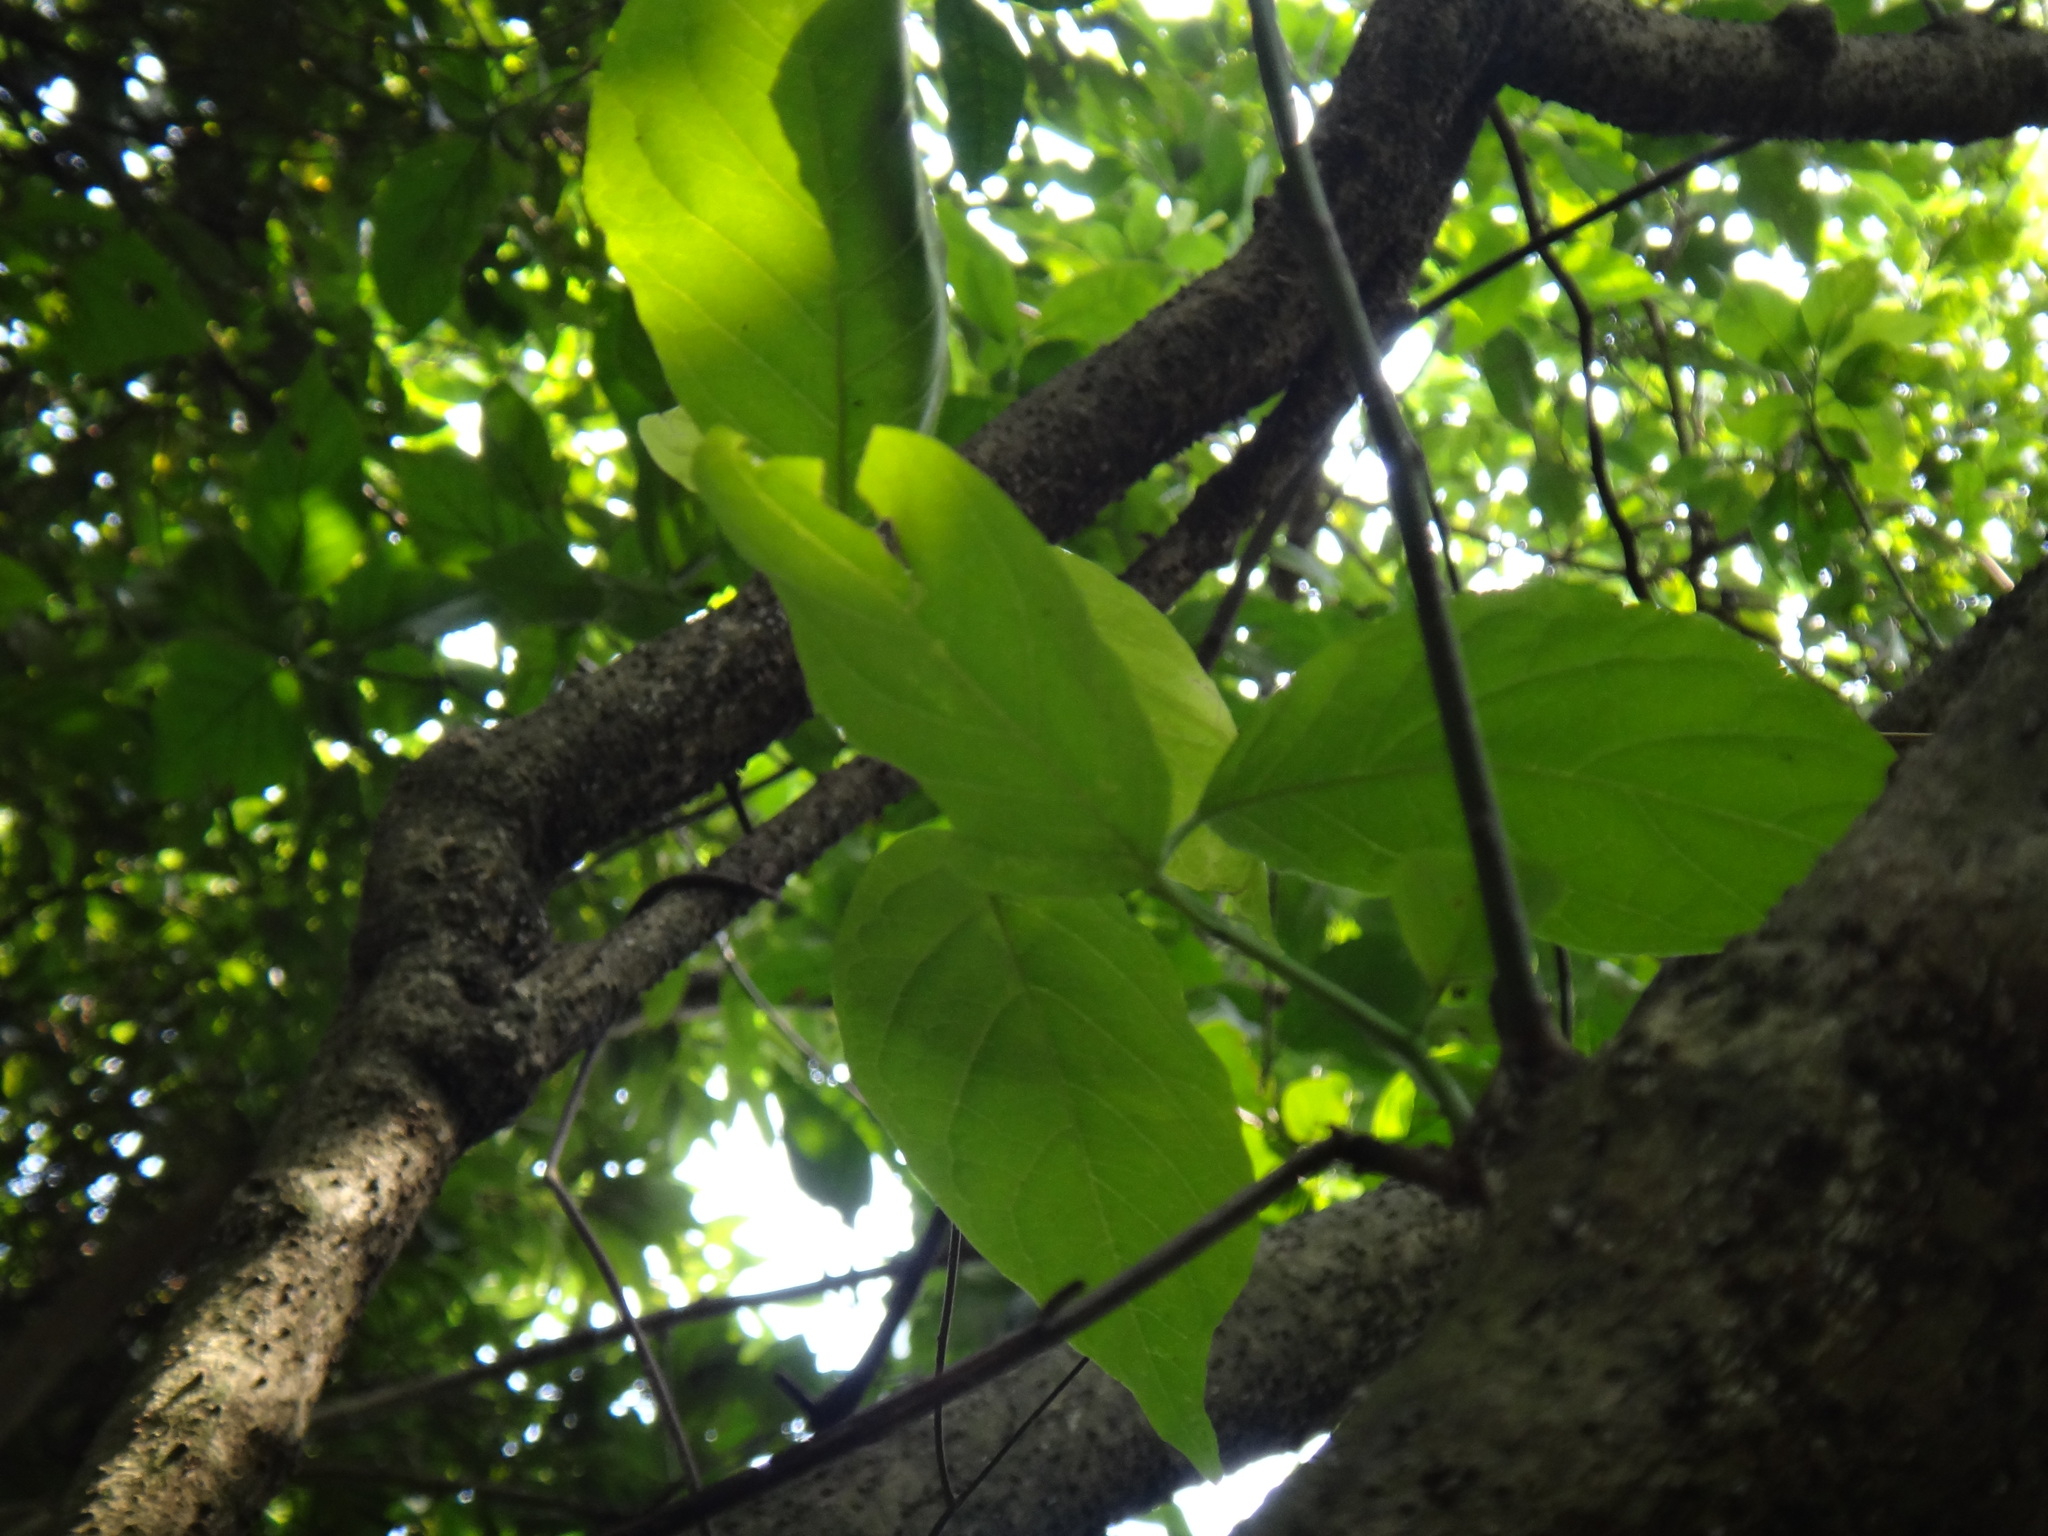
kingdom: Plantae
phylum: Tracheophyta
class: Magnoliopsida
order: Boraginales
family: Ehretiaceae
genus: Ehretia
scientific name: Ehretia resinosa
